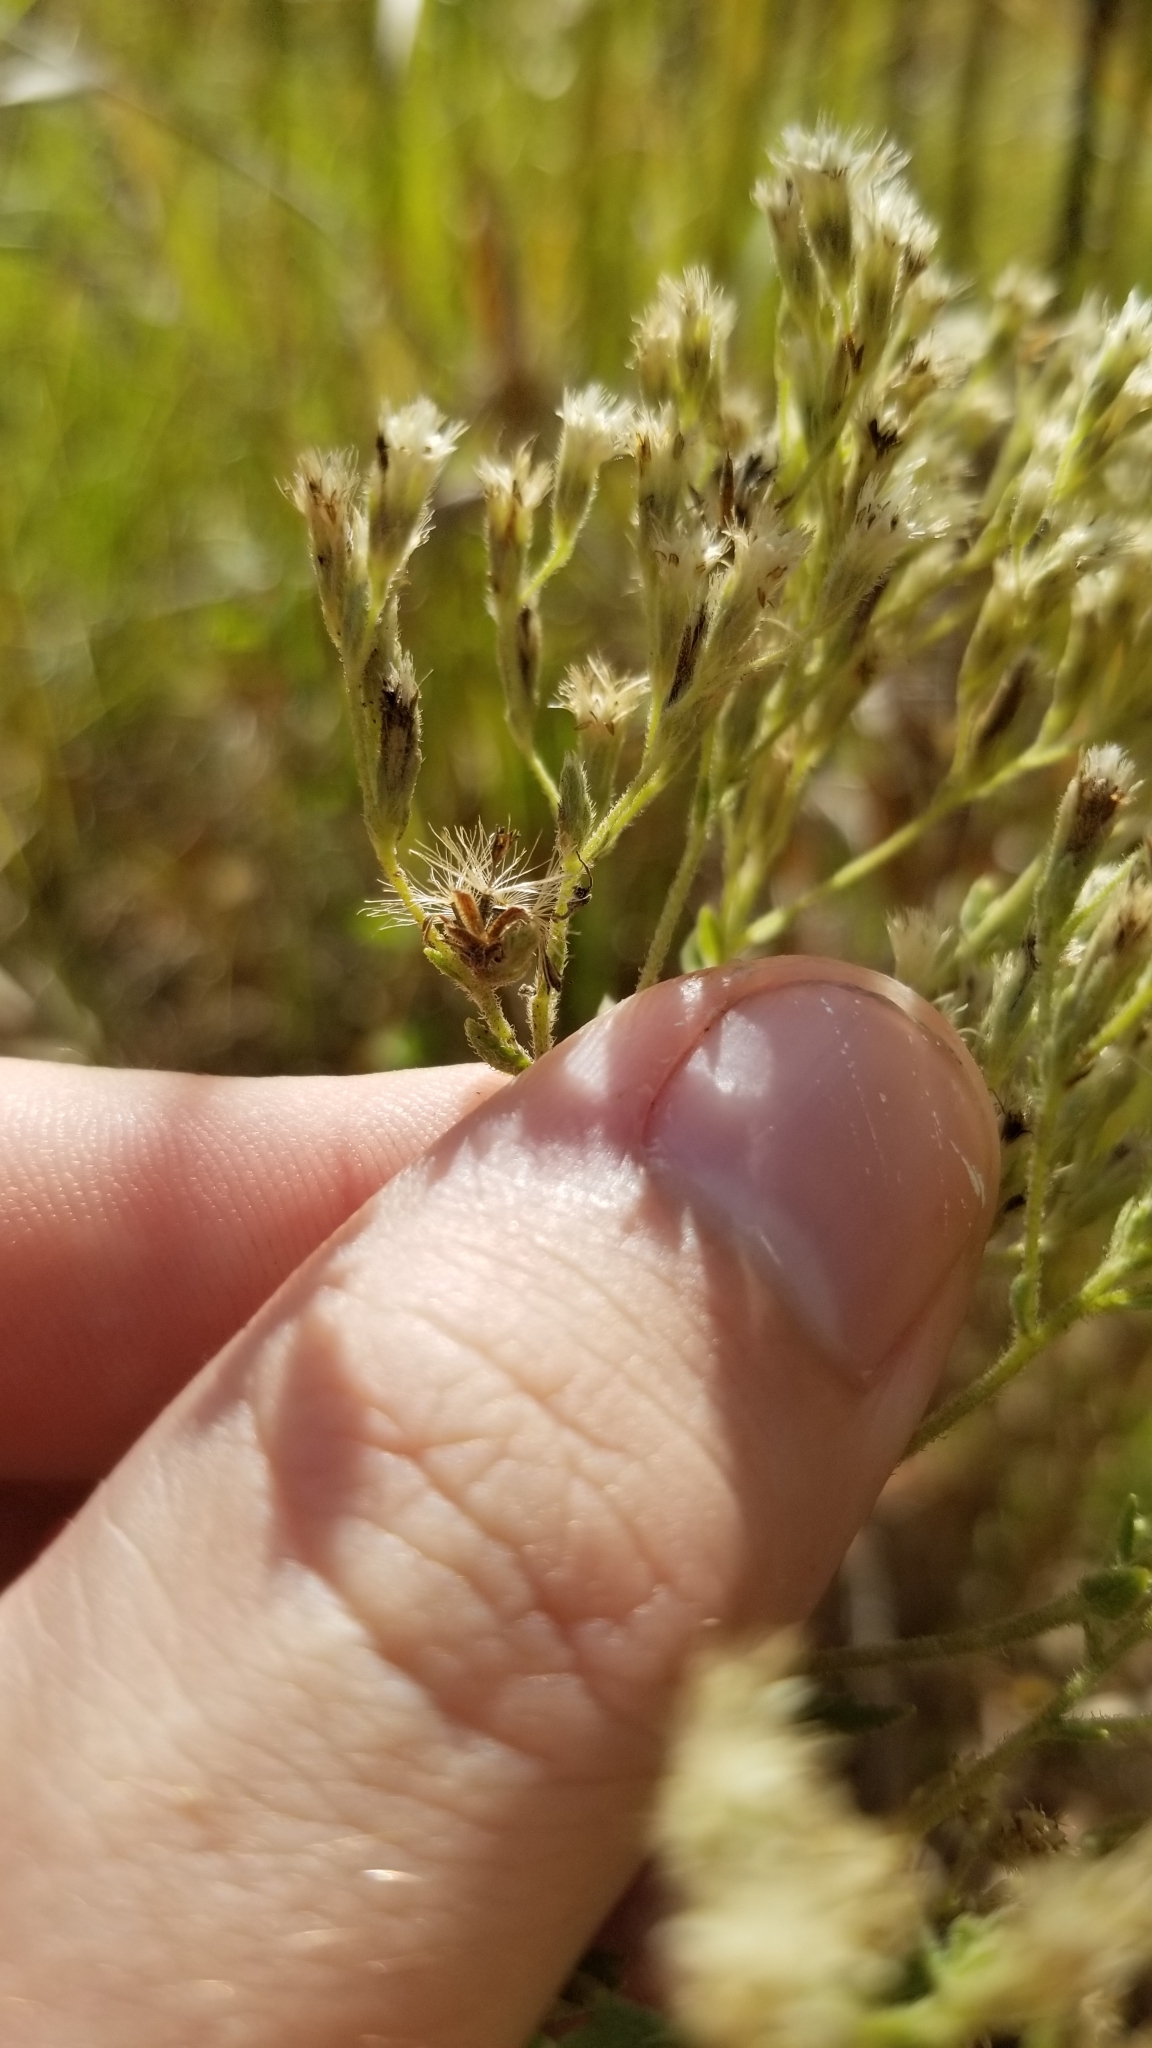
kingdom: Plantae
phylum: Tracheophyta
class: Magnoliopsida
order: Asterales
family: Asteraceae
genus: Eupatorium
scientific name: Eupatorium rotundifolium
